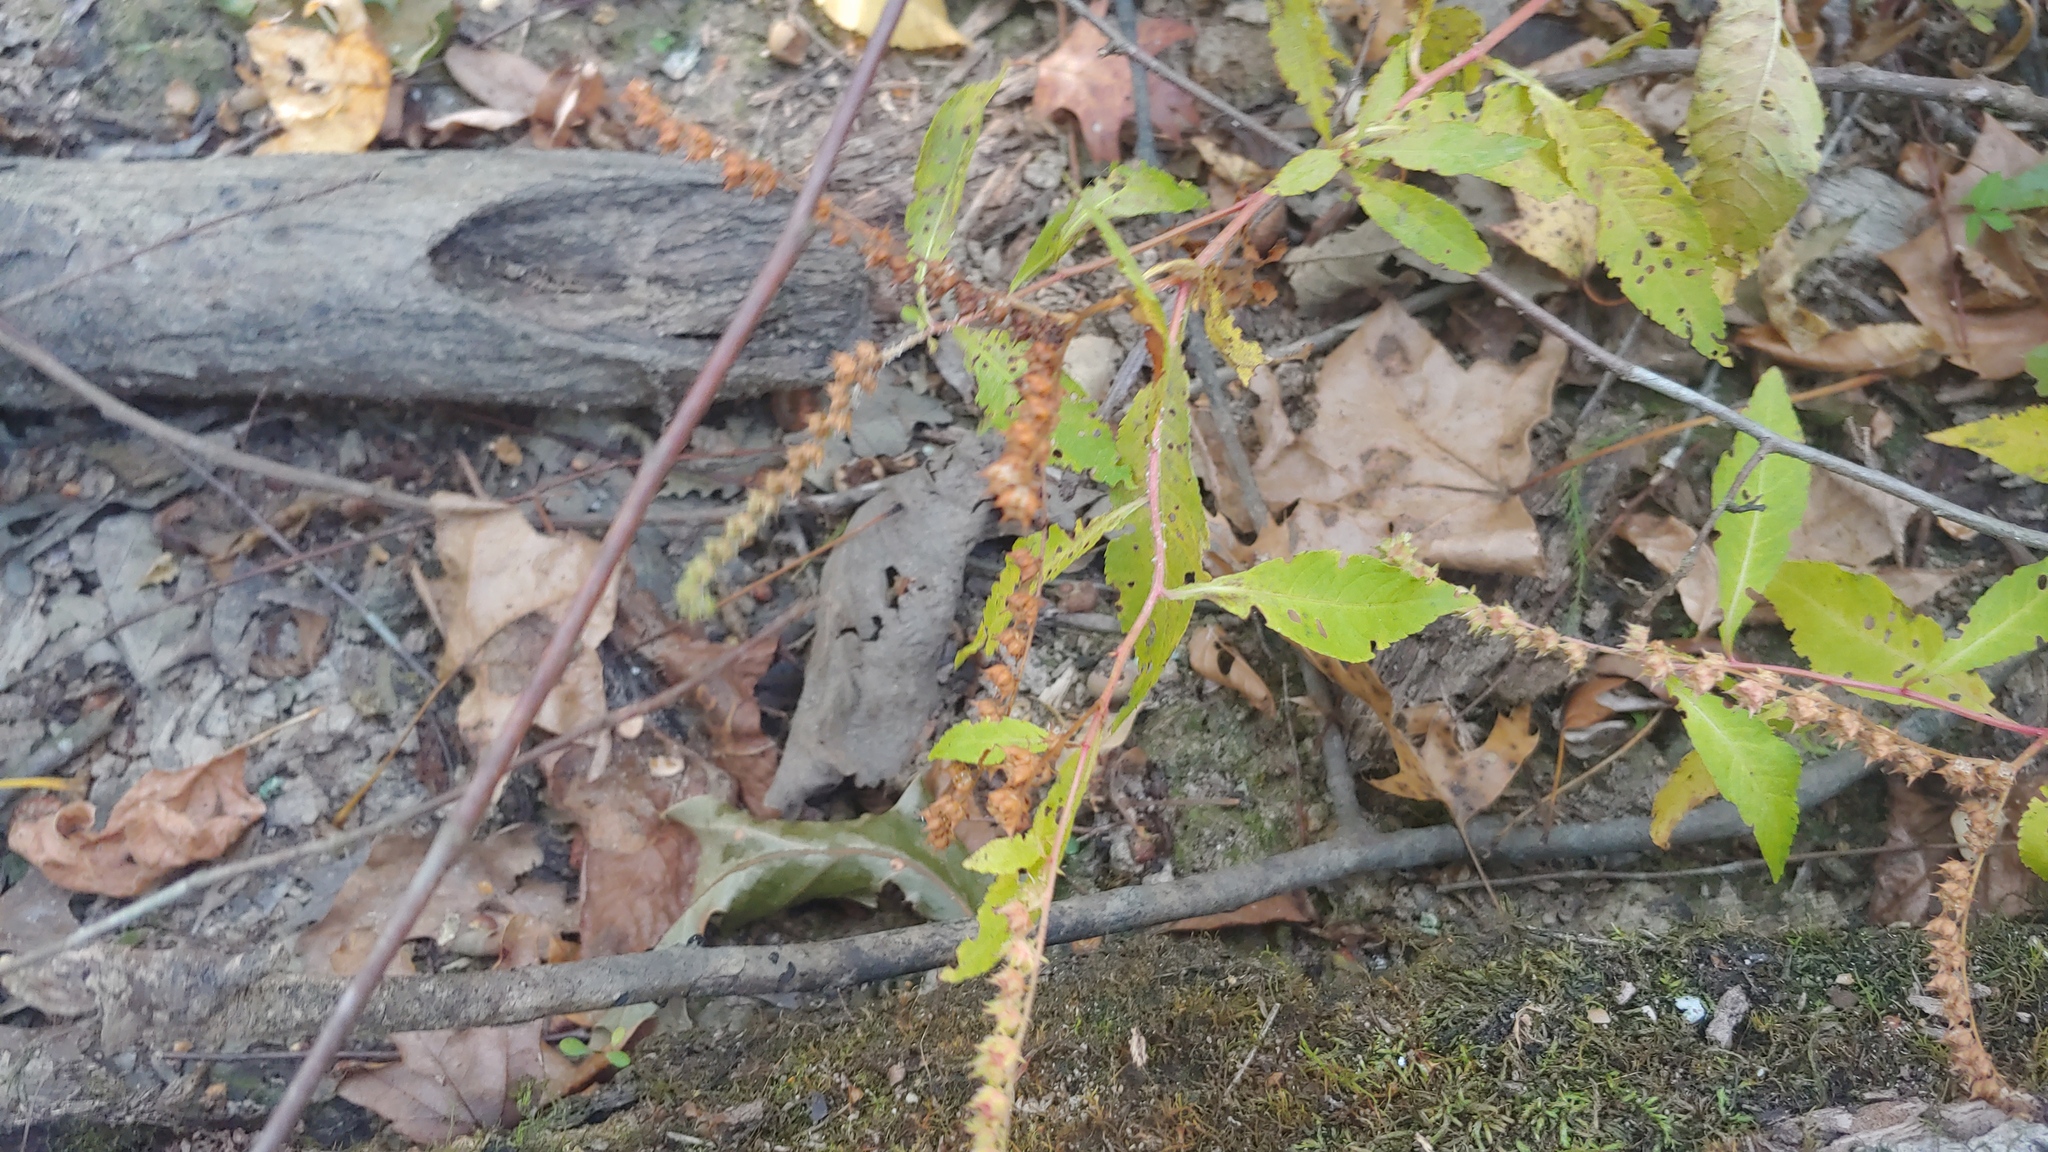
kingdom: Plantae
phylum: Tracheophyta
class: Magnoliopsida
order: Saxifragales
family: Penthoraceae
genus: Penthorum
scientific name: Penthorum sedoides
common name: Ditch stonecrop
